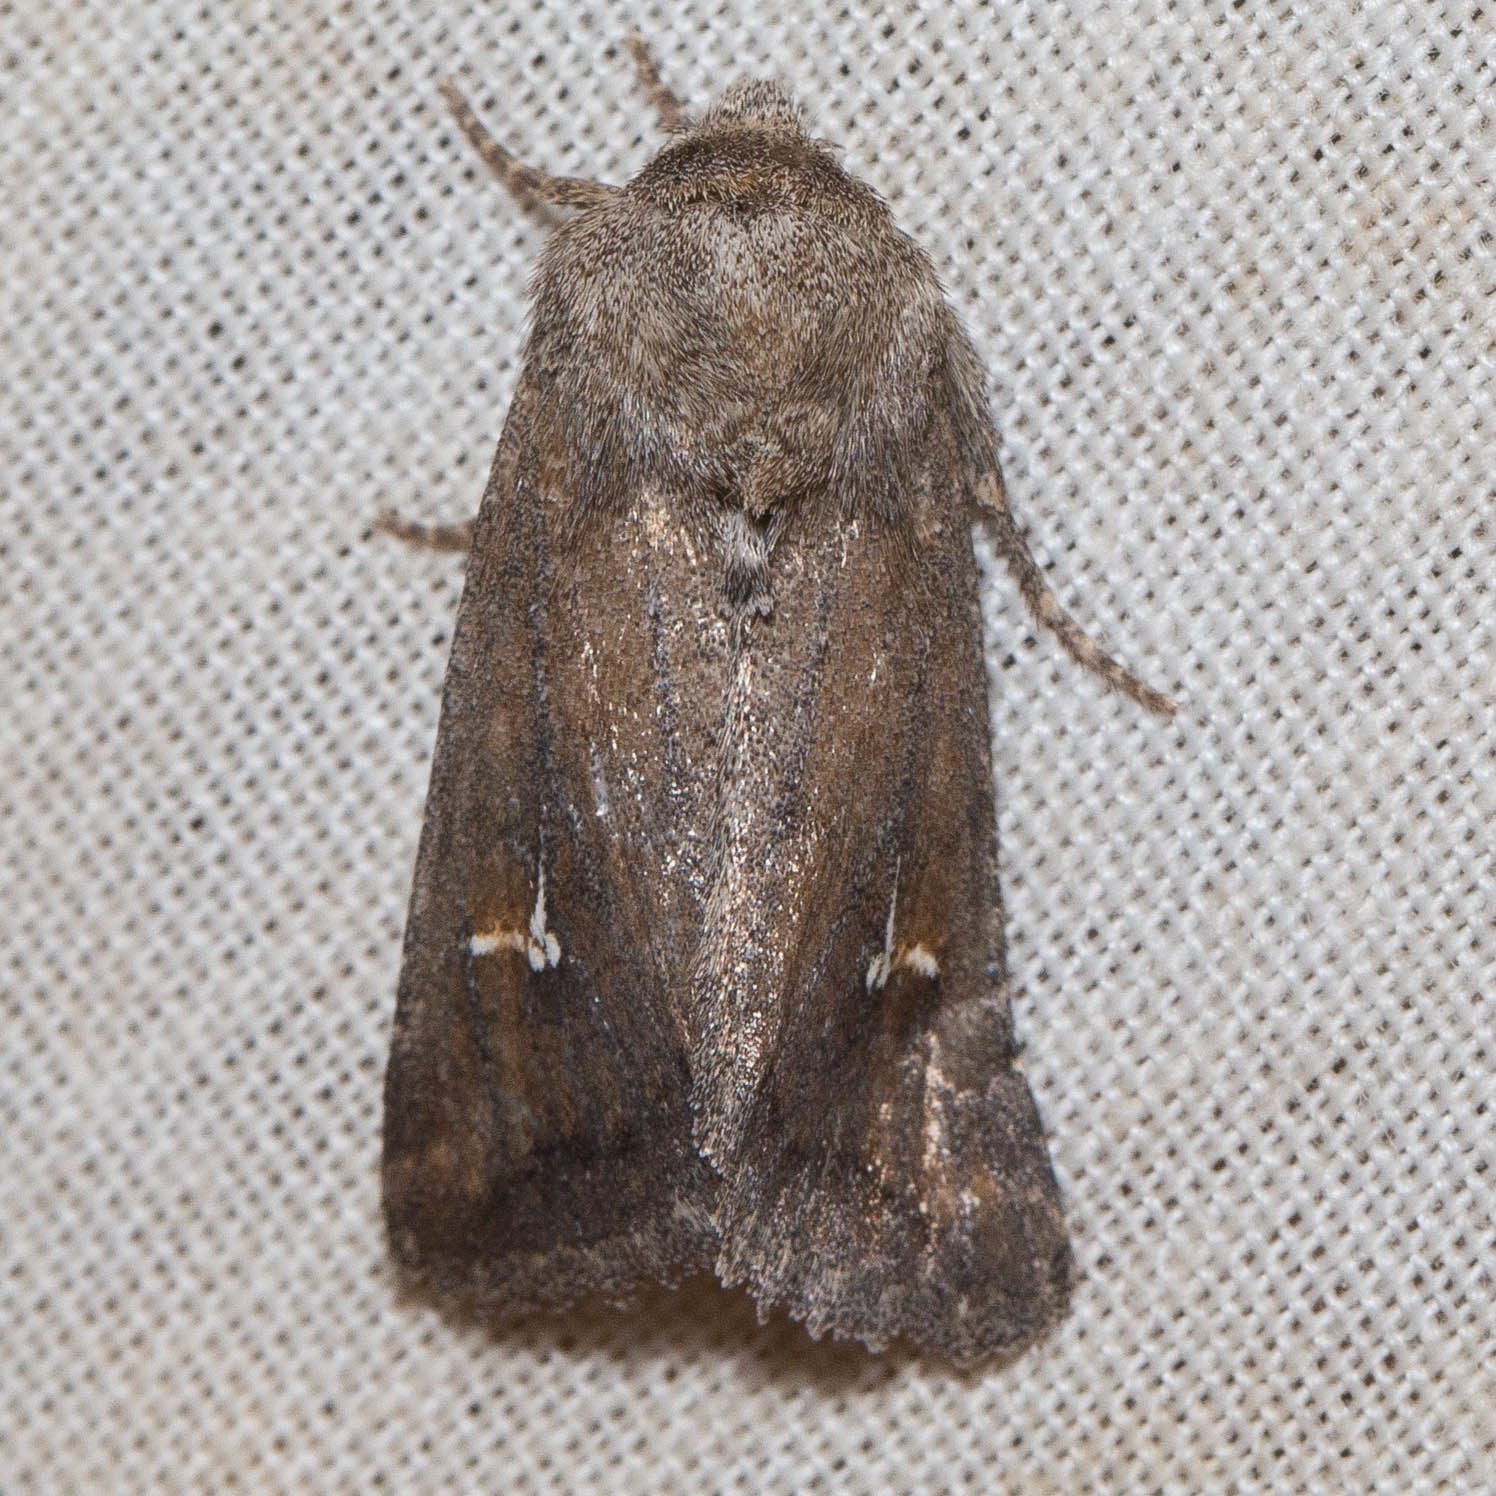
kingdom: Animalia
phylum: Arthropoda
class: Insecta
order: Lepidoptera
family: Noctuidae
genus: Tricholita
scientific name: Tricholita chipeta
